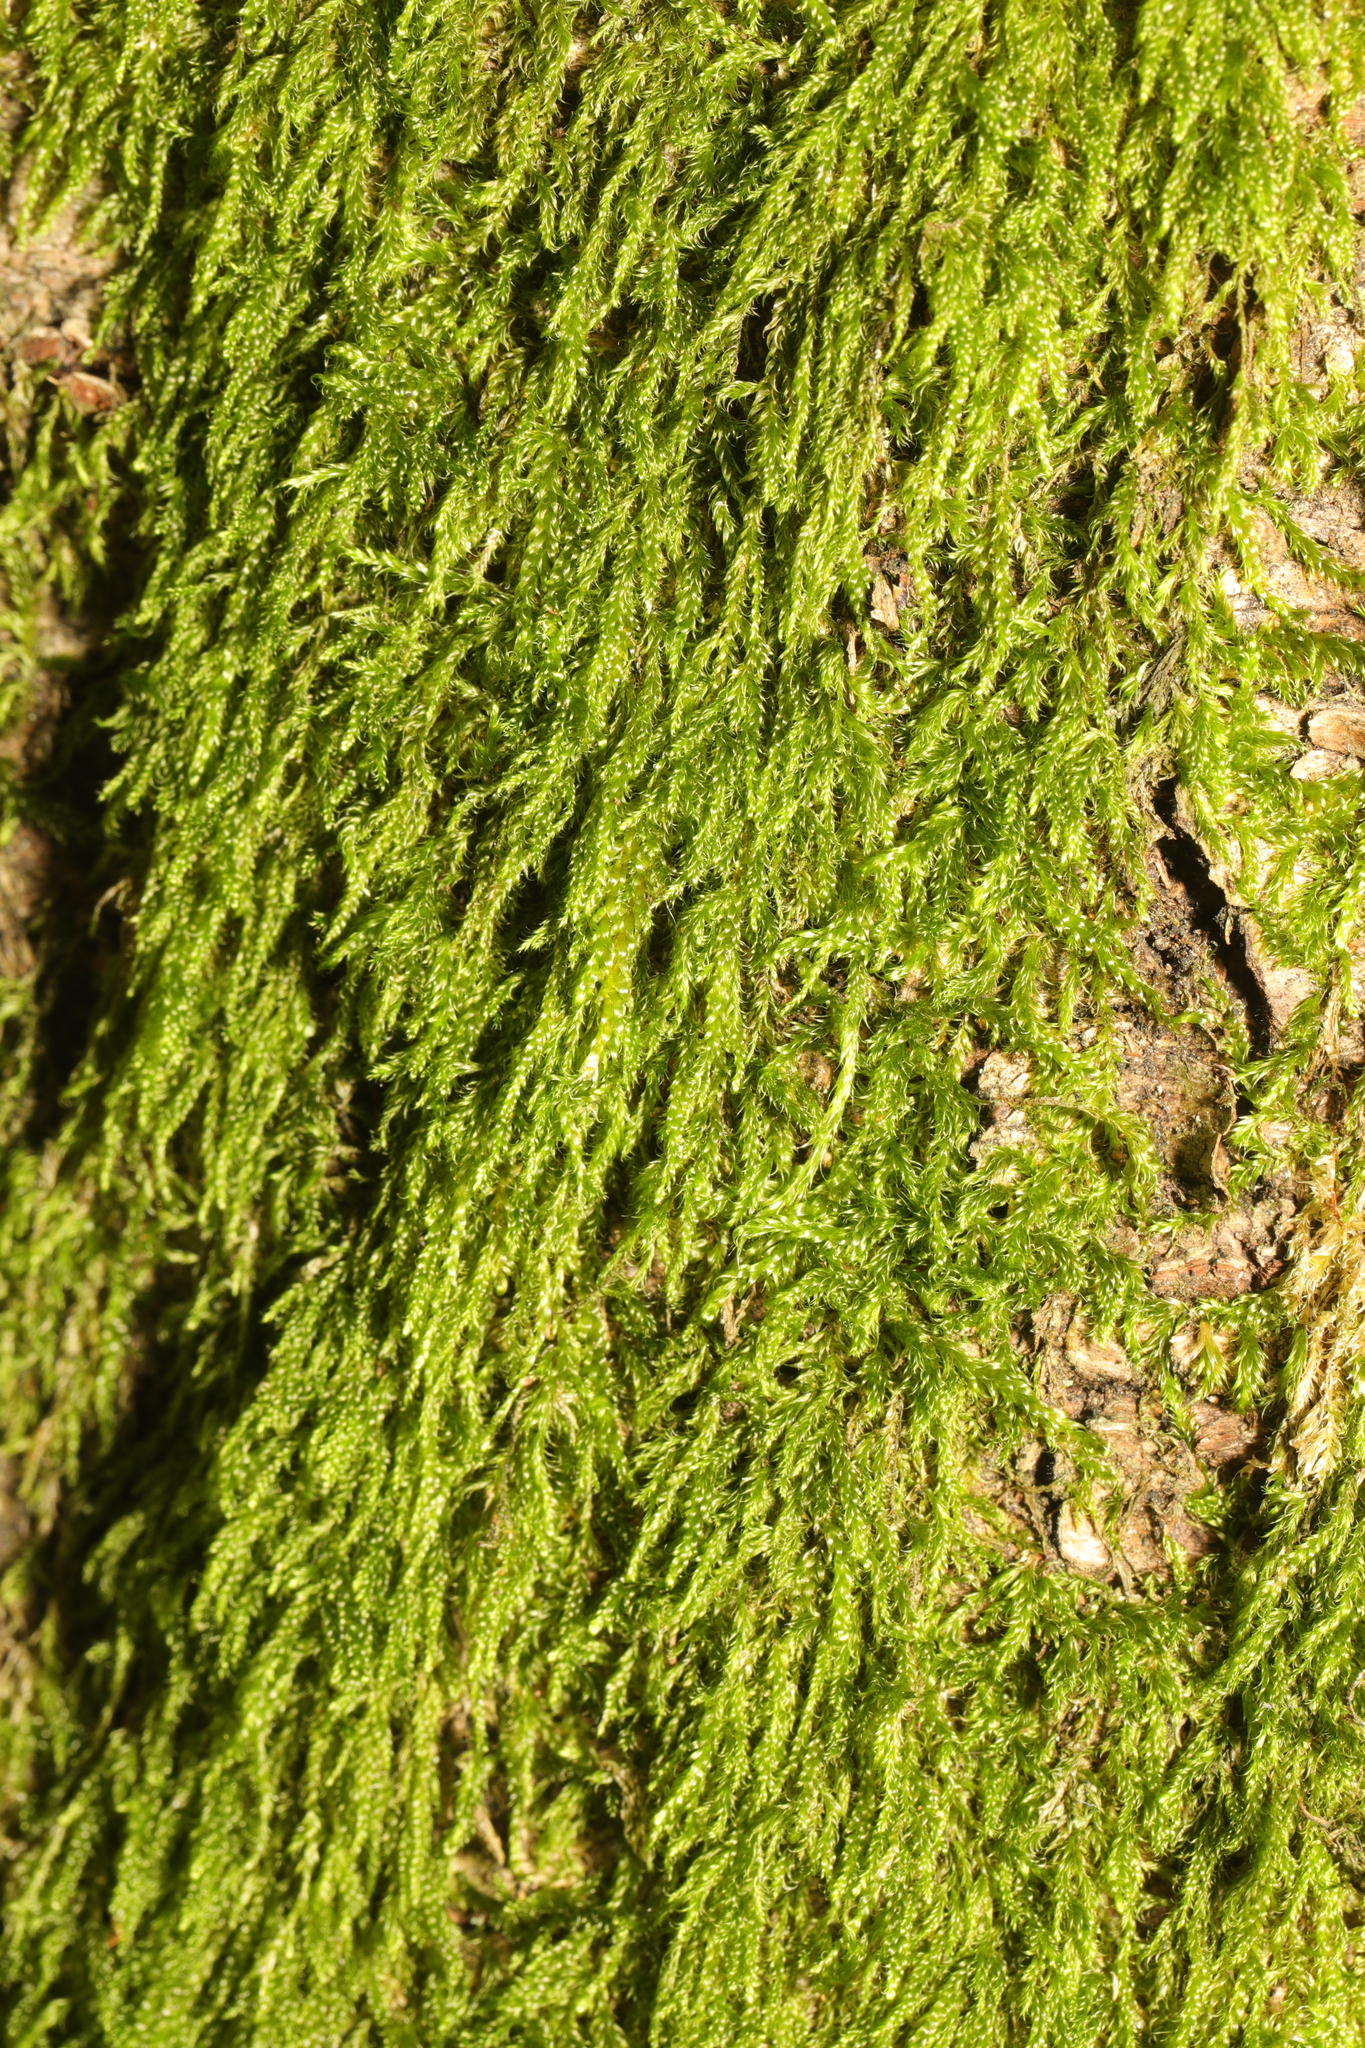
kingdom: Plantae
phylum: Bryophyta
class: Bryopsida
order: Hypnales
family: Hypnaceae
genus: Hypnum
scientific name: Hypnum cupressiforme
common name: Cypress-leaved plait-moss
